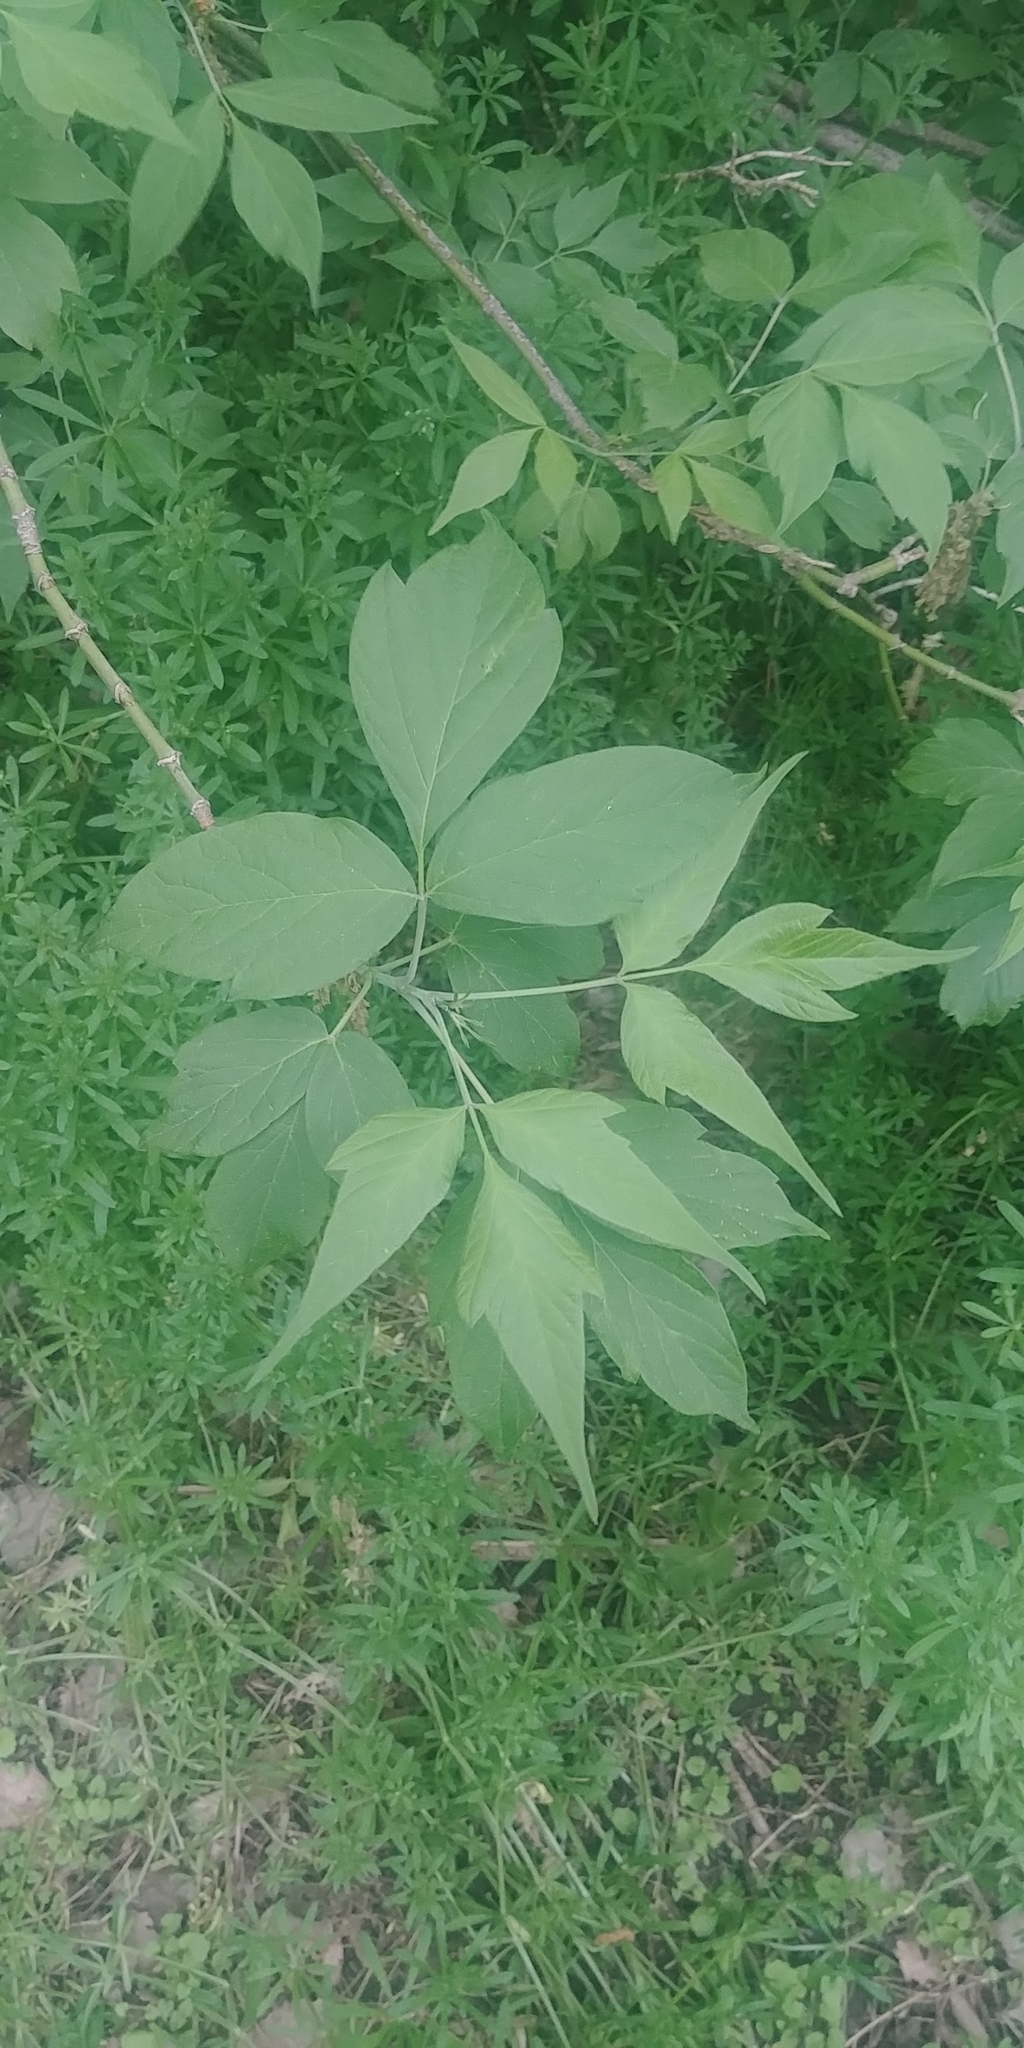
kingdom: Plantae
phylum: Tracheophyta
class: Magnoliopsida
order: Sapindales
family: Sapindaceae
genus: Acer
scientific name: Acer negundo
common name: Ashleaf maple
